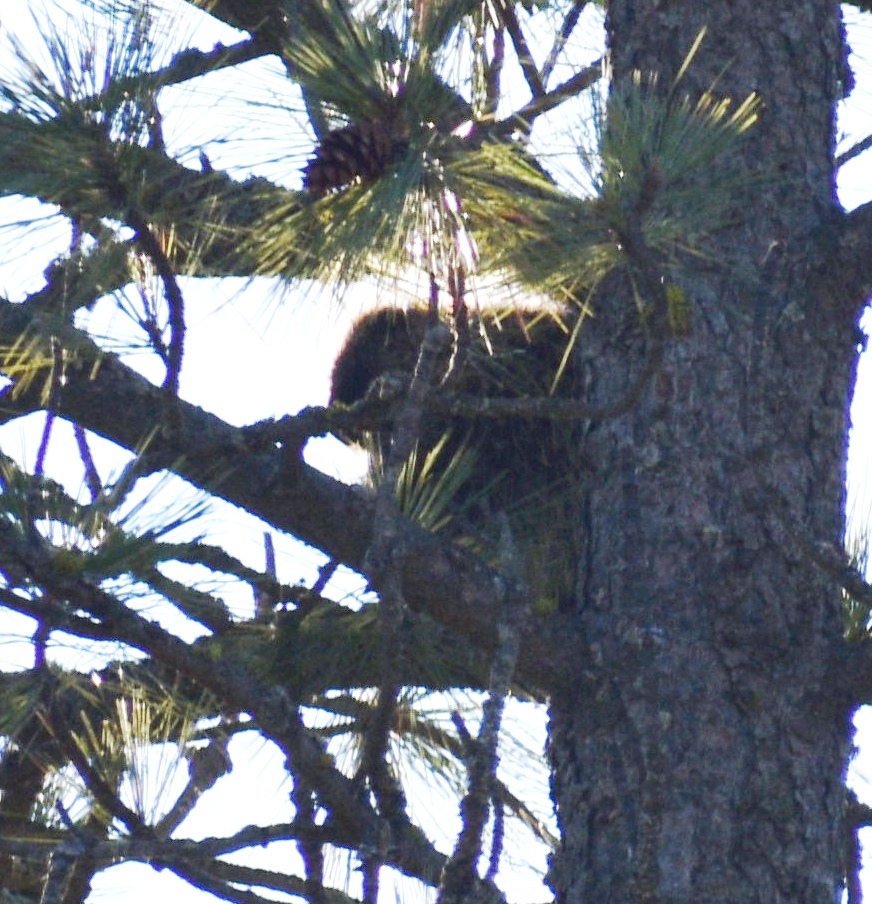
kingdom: Animalia
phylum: Chordata
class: Mammalia
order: Rodentia
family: Erethizontidae
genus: Erethizon
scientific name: Erethizon dorsatus
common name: North american porcupine
